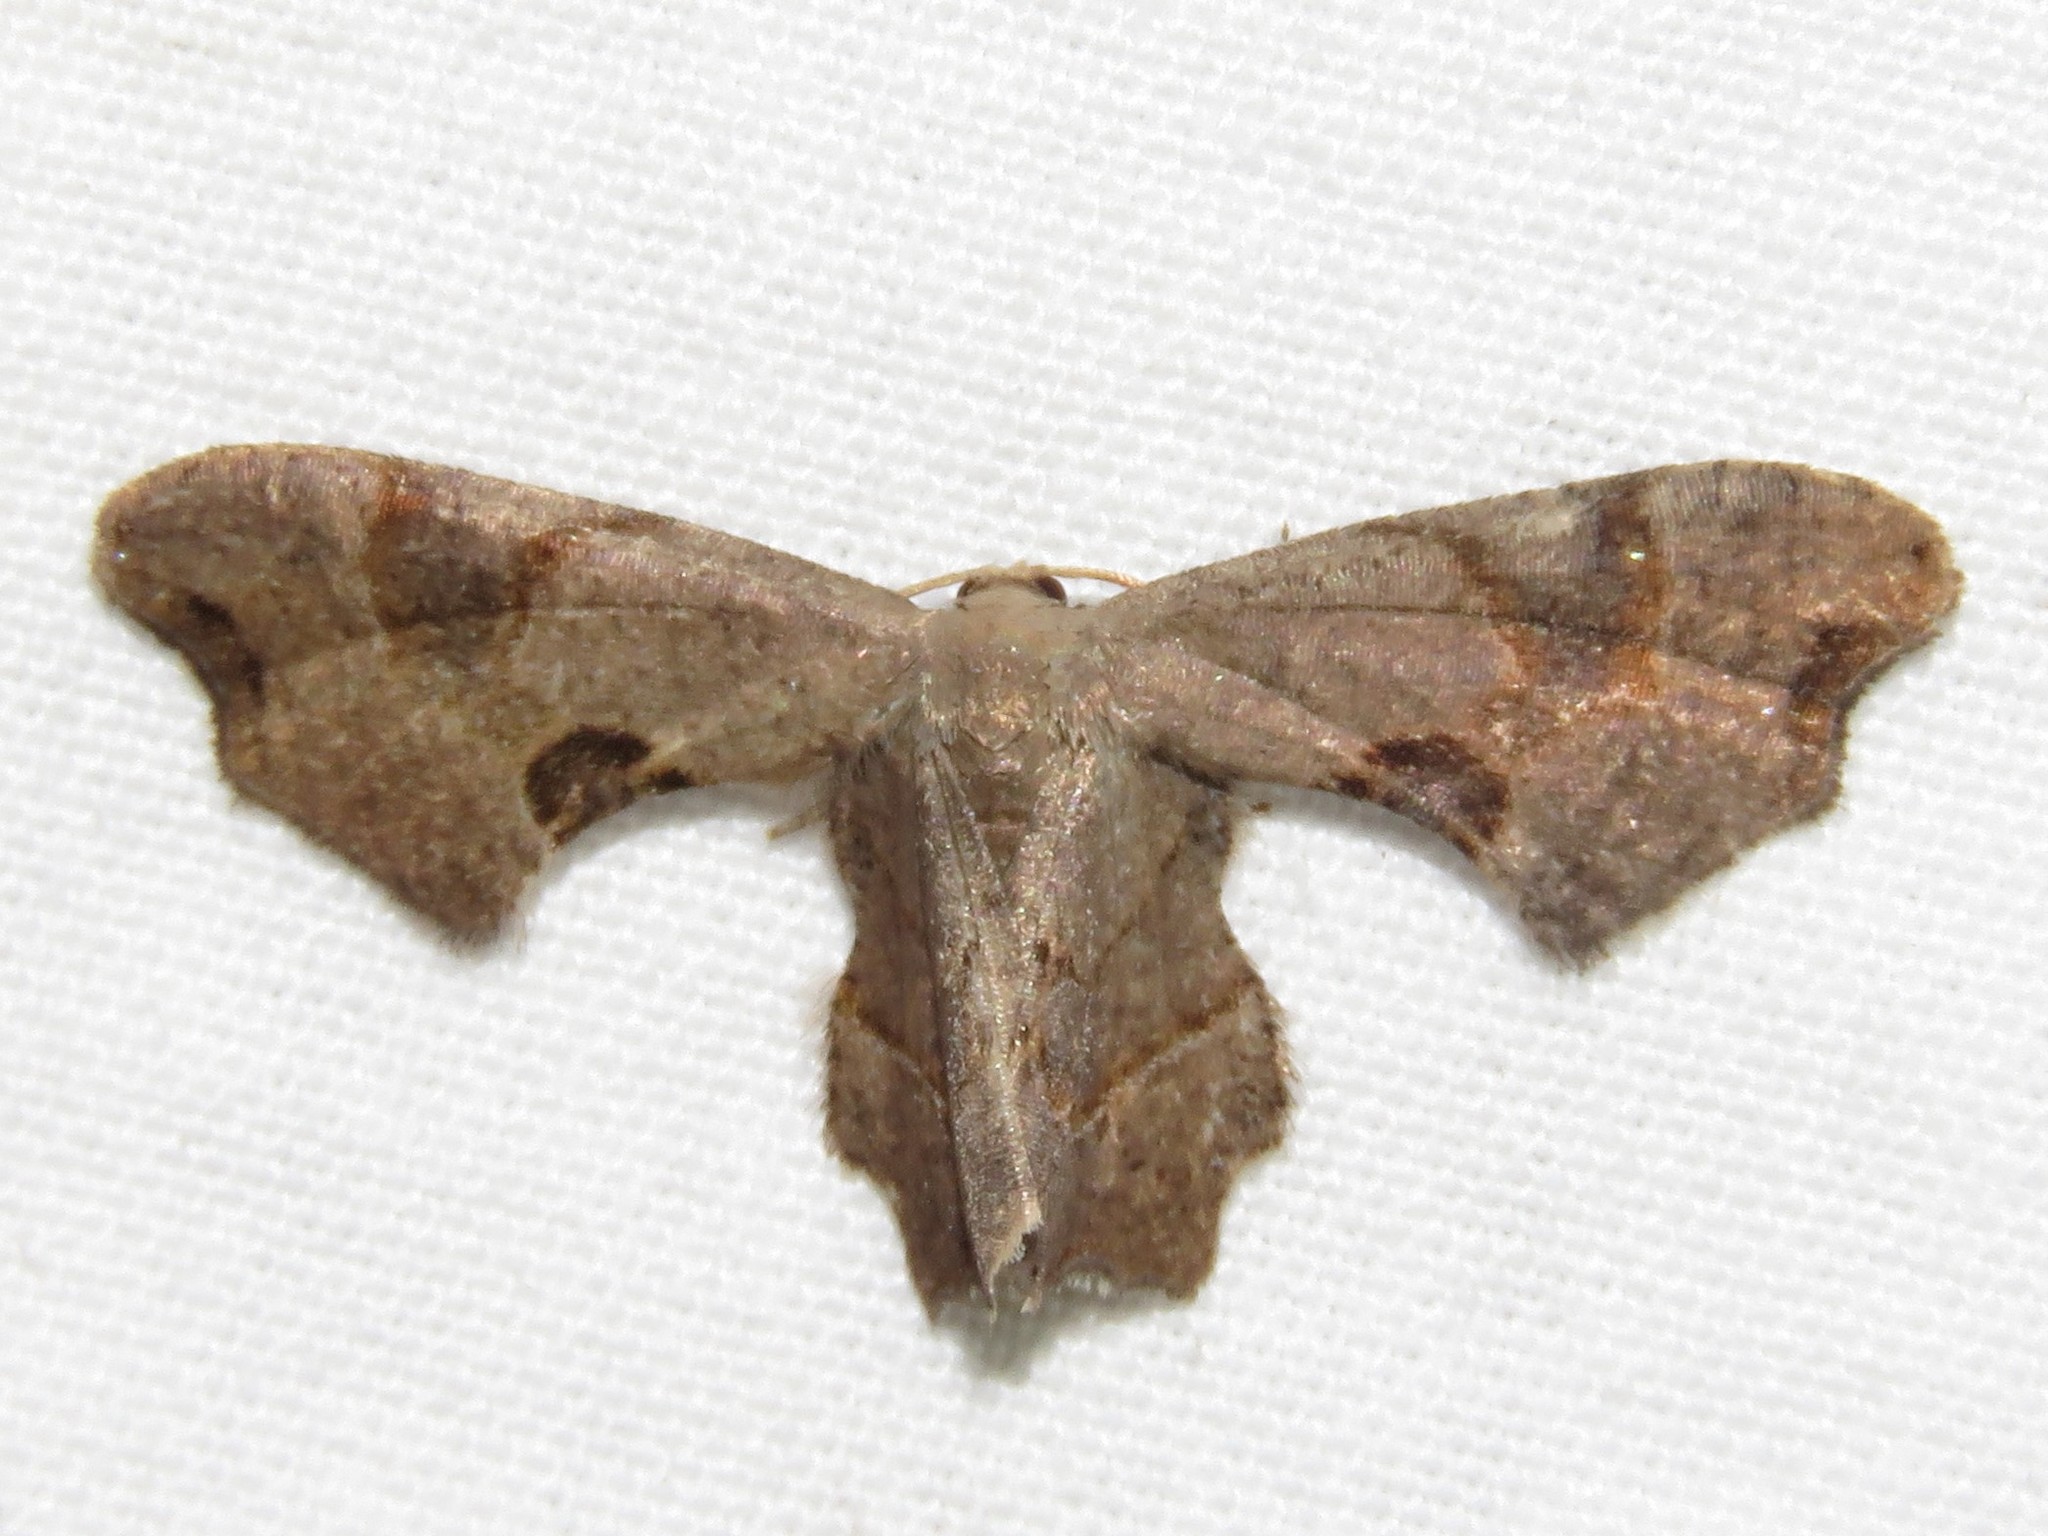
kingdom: Animalia
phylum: Arthropoda
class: Insecta
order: Lepidoptera
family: Uraniidae
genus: Epiplema
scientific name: Epiplema Calledapteryx dryopterata
